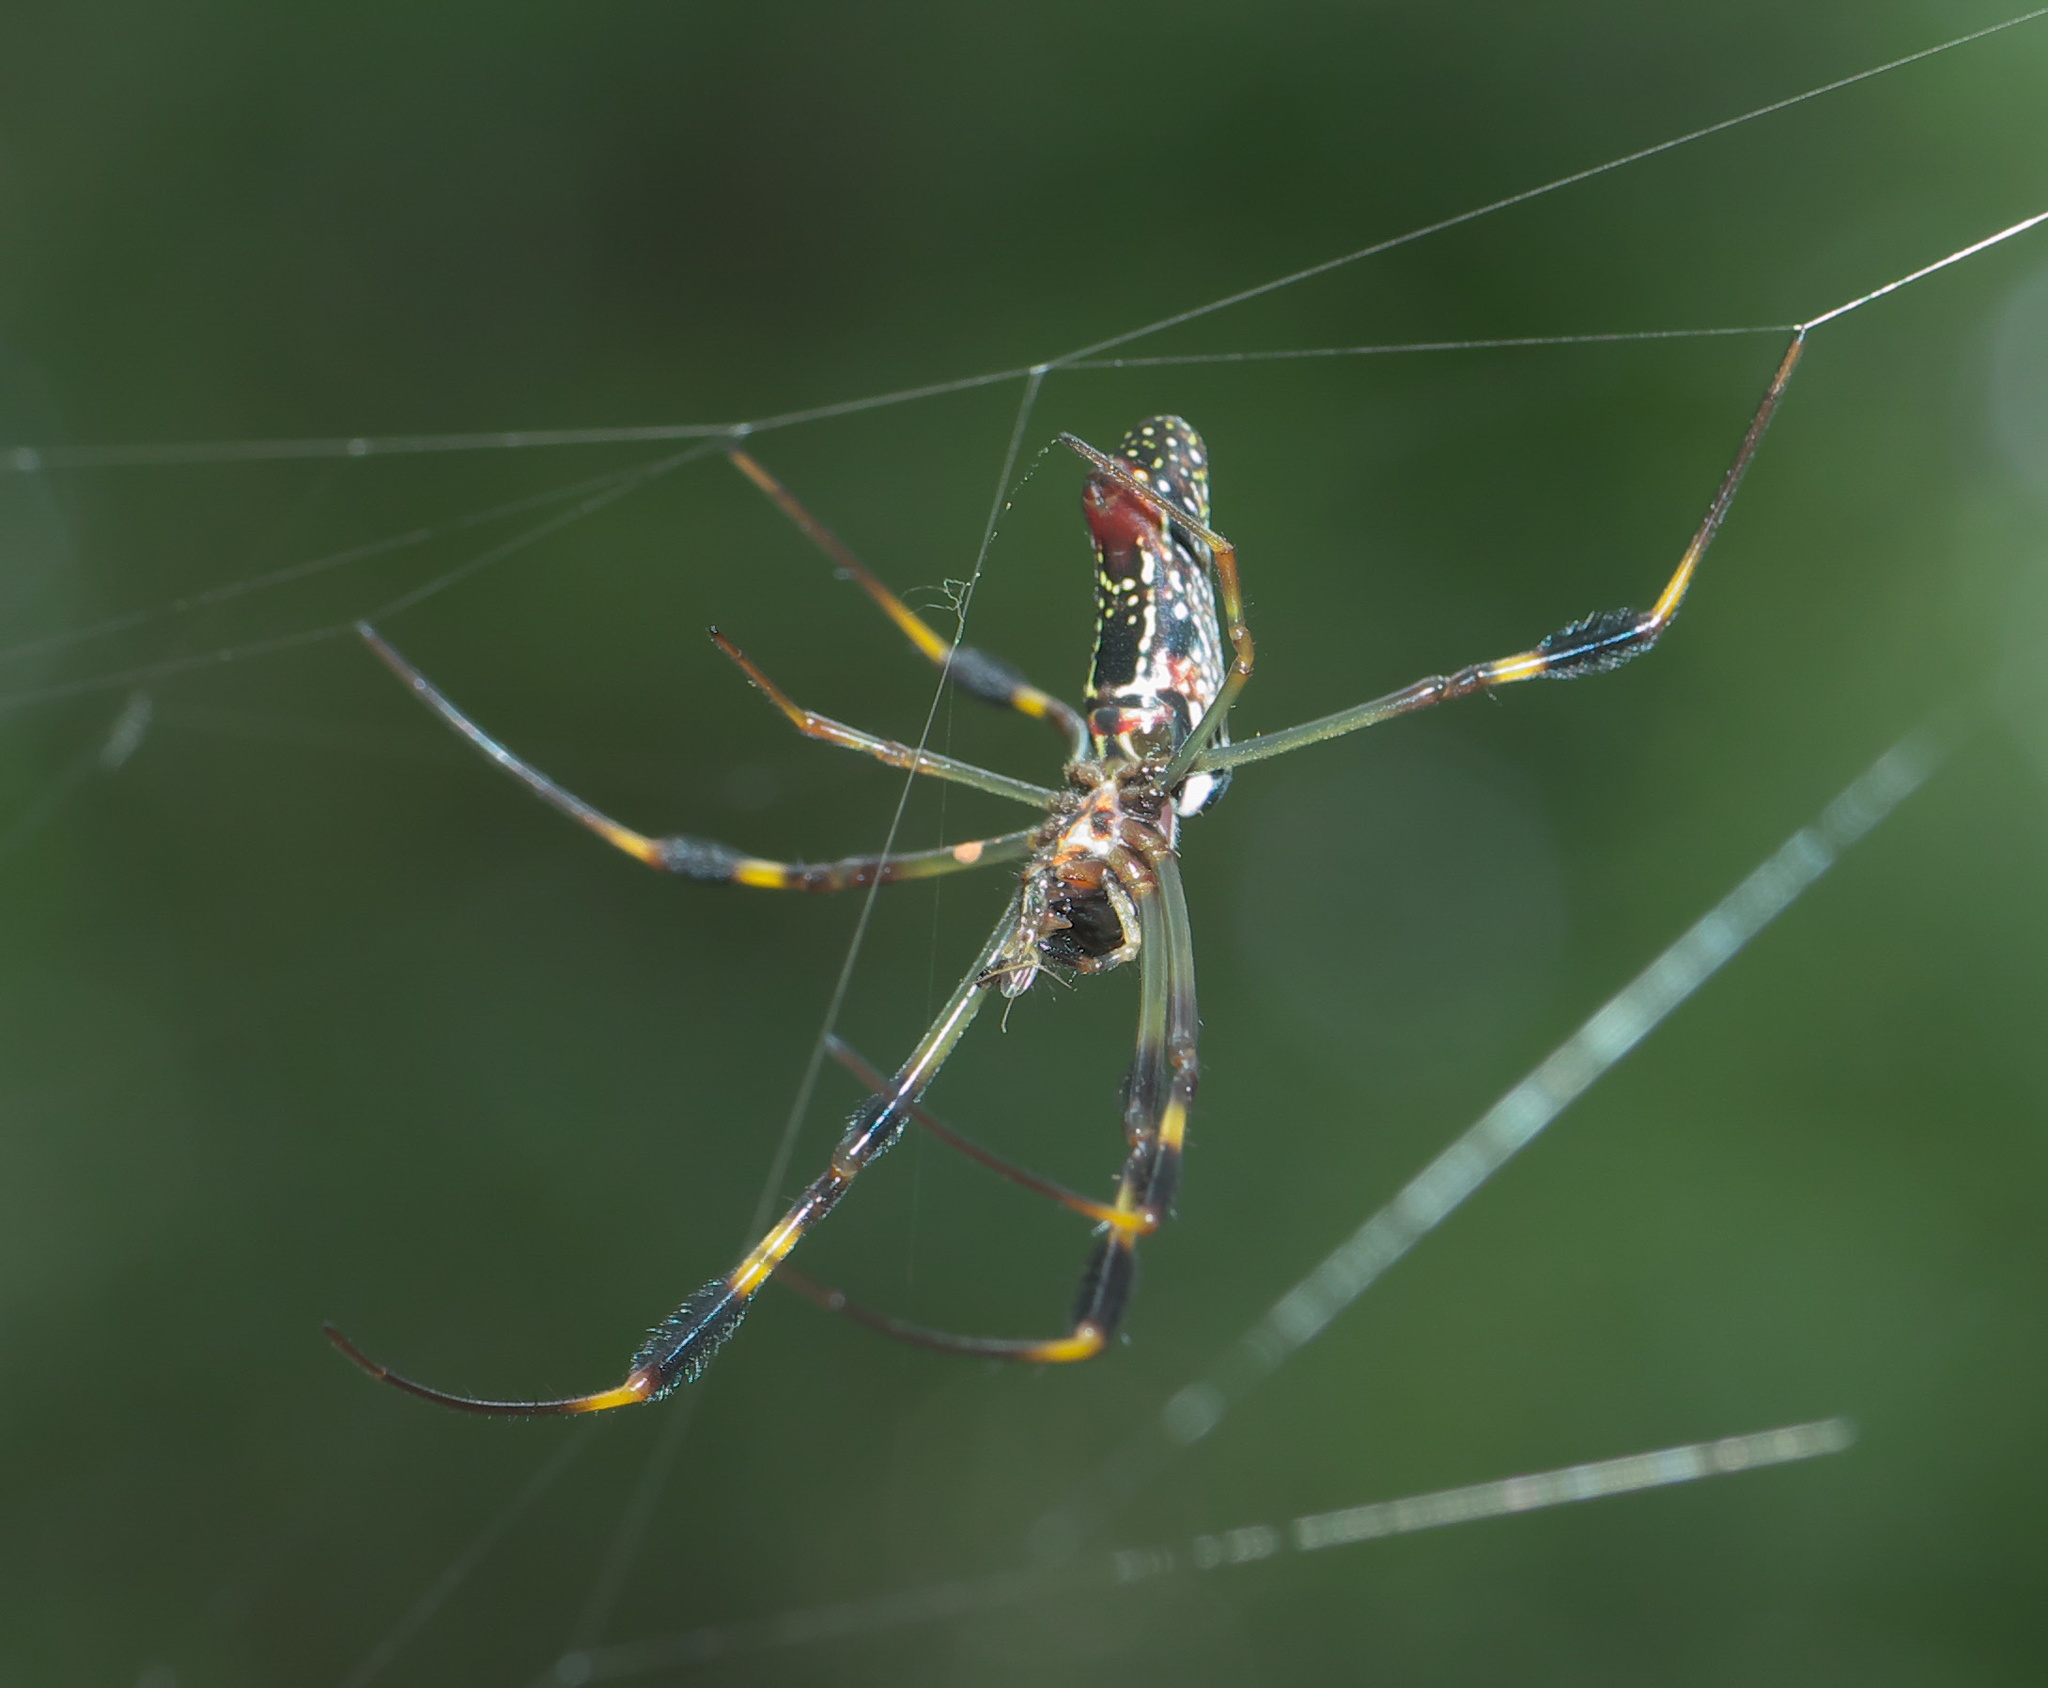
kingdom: Animalia
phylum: Arthropoda
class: Arachnida
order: Araneae
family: Araneidae
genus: Trichonephila
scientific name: Trichonephila clavipes
